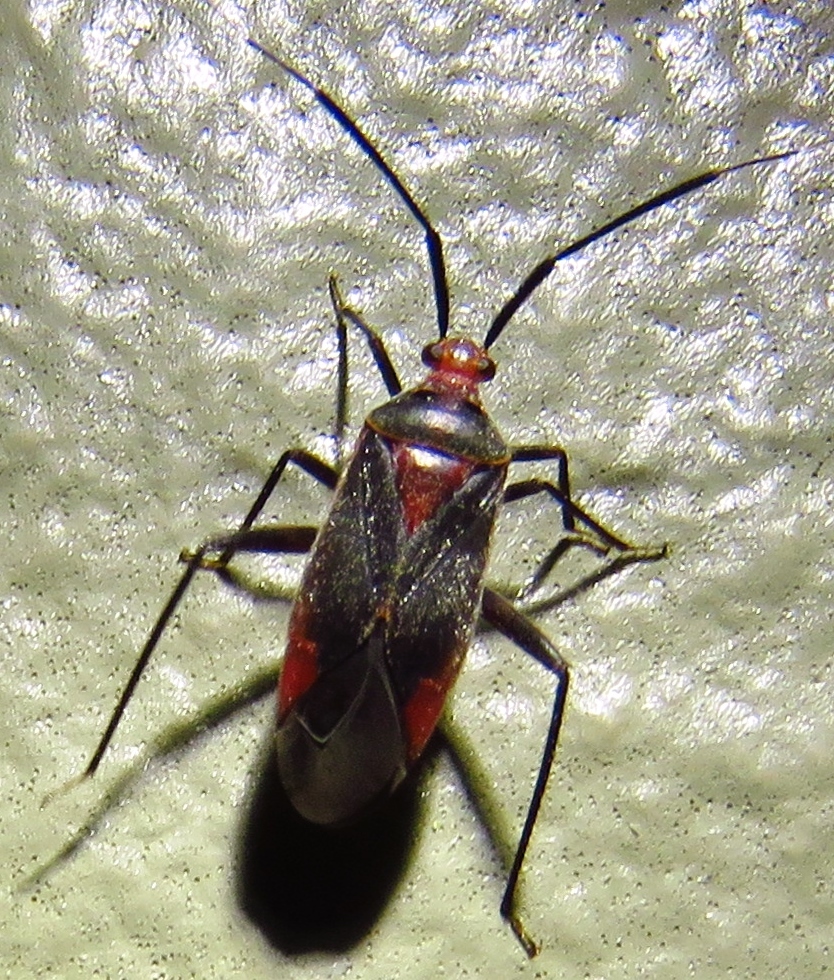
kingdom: Animalia
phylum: Arthropoda
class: Insecta
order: Hemiptera
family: Miridae
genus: Taedia
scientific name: Taedia johnstoni
